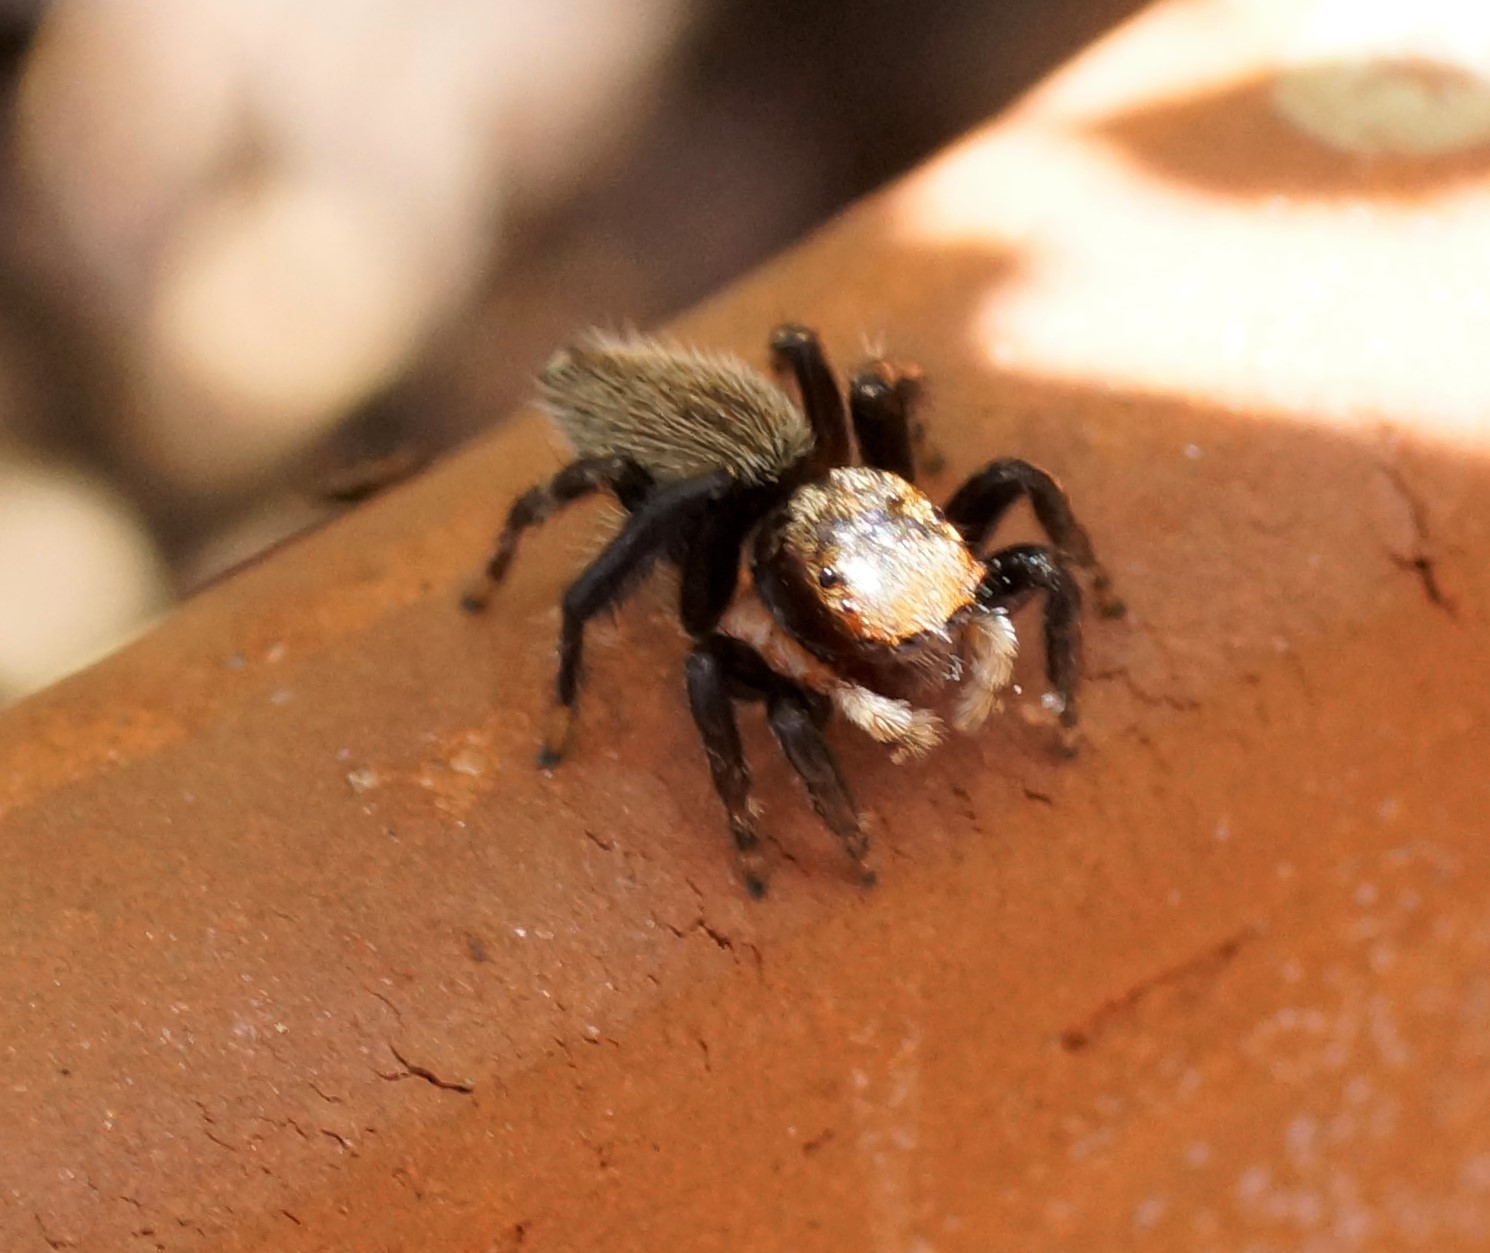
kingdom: Animalia
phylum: Arthropoda
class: Arachnida
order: Araneae
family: Salticidae
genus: Maratus
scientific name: Maratus griseus
